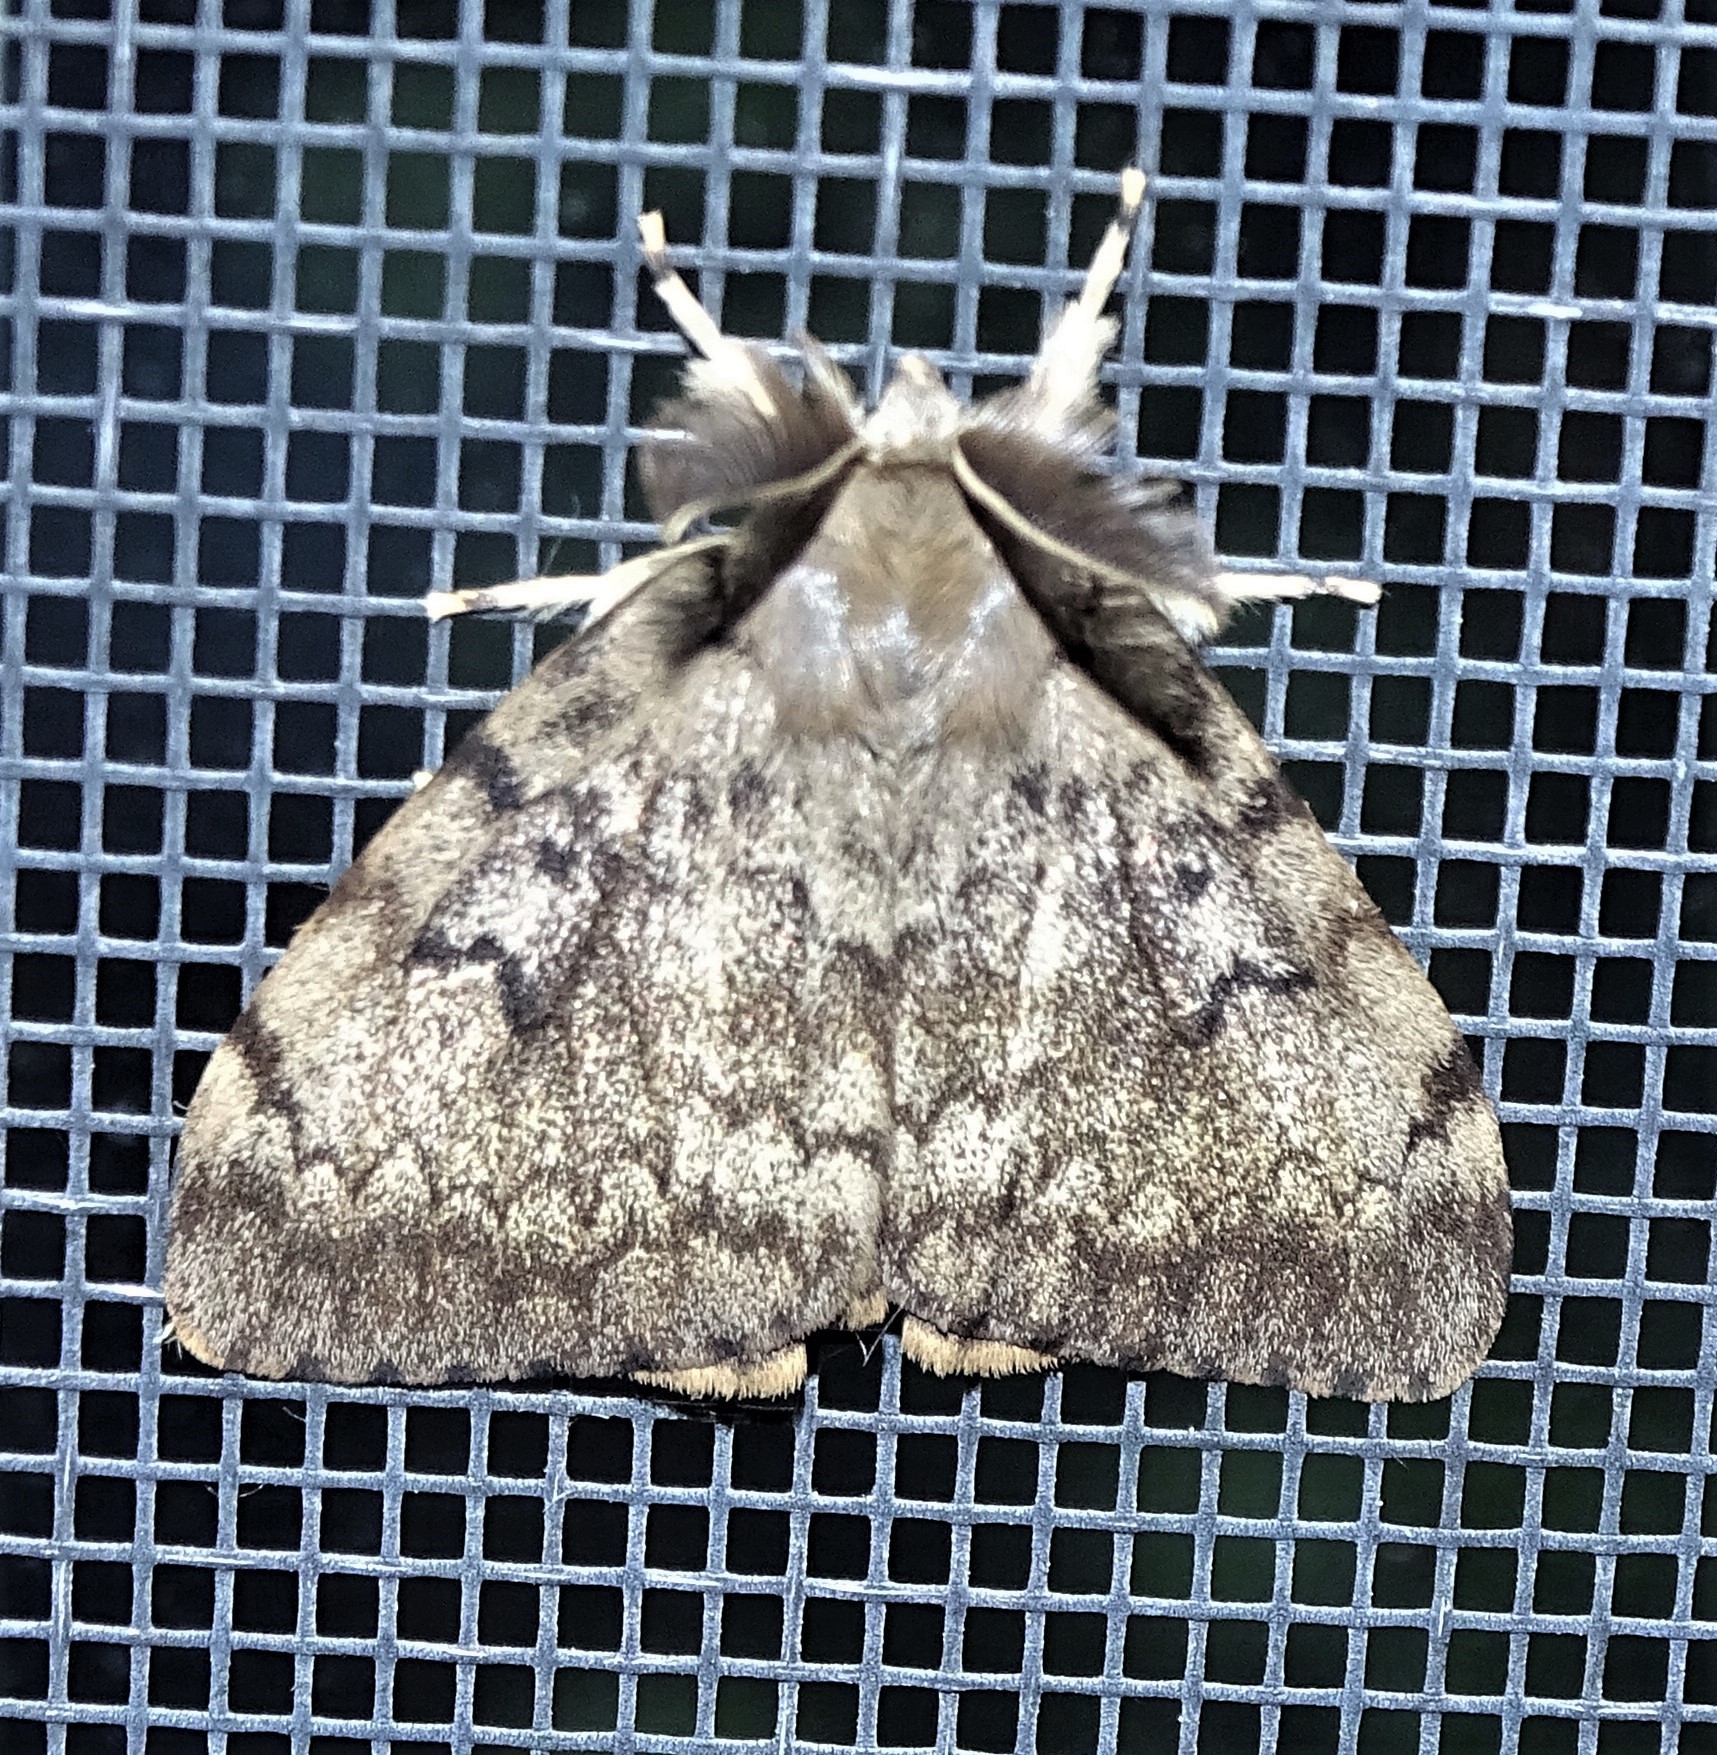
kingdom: Animalia
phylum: Arthropoda
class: Insecta
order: Lepidoptera
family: Erebidae
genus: Lymantria
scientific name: Lymantria dispar
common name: Gypsy moth
